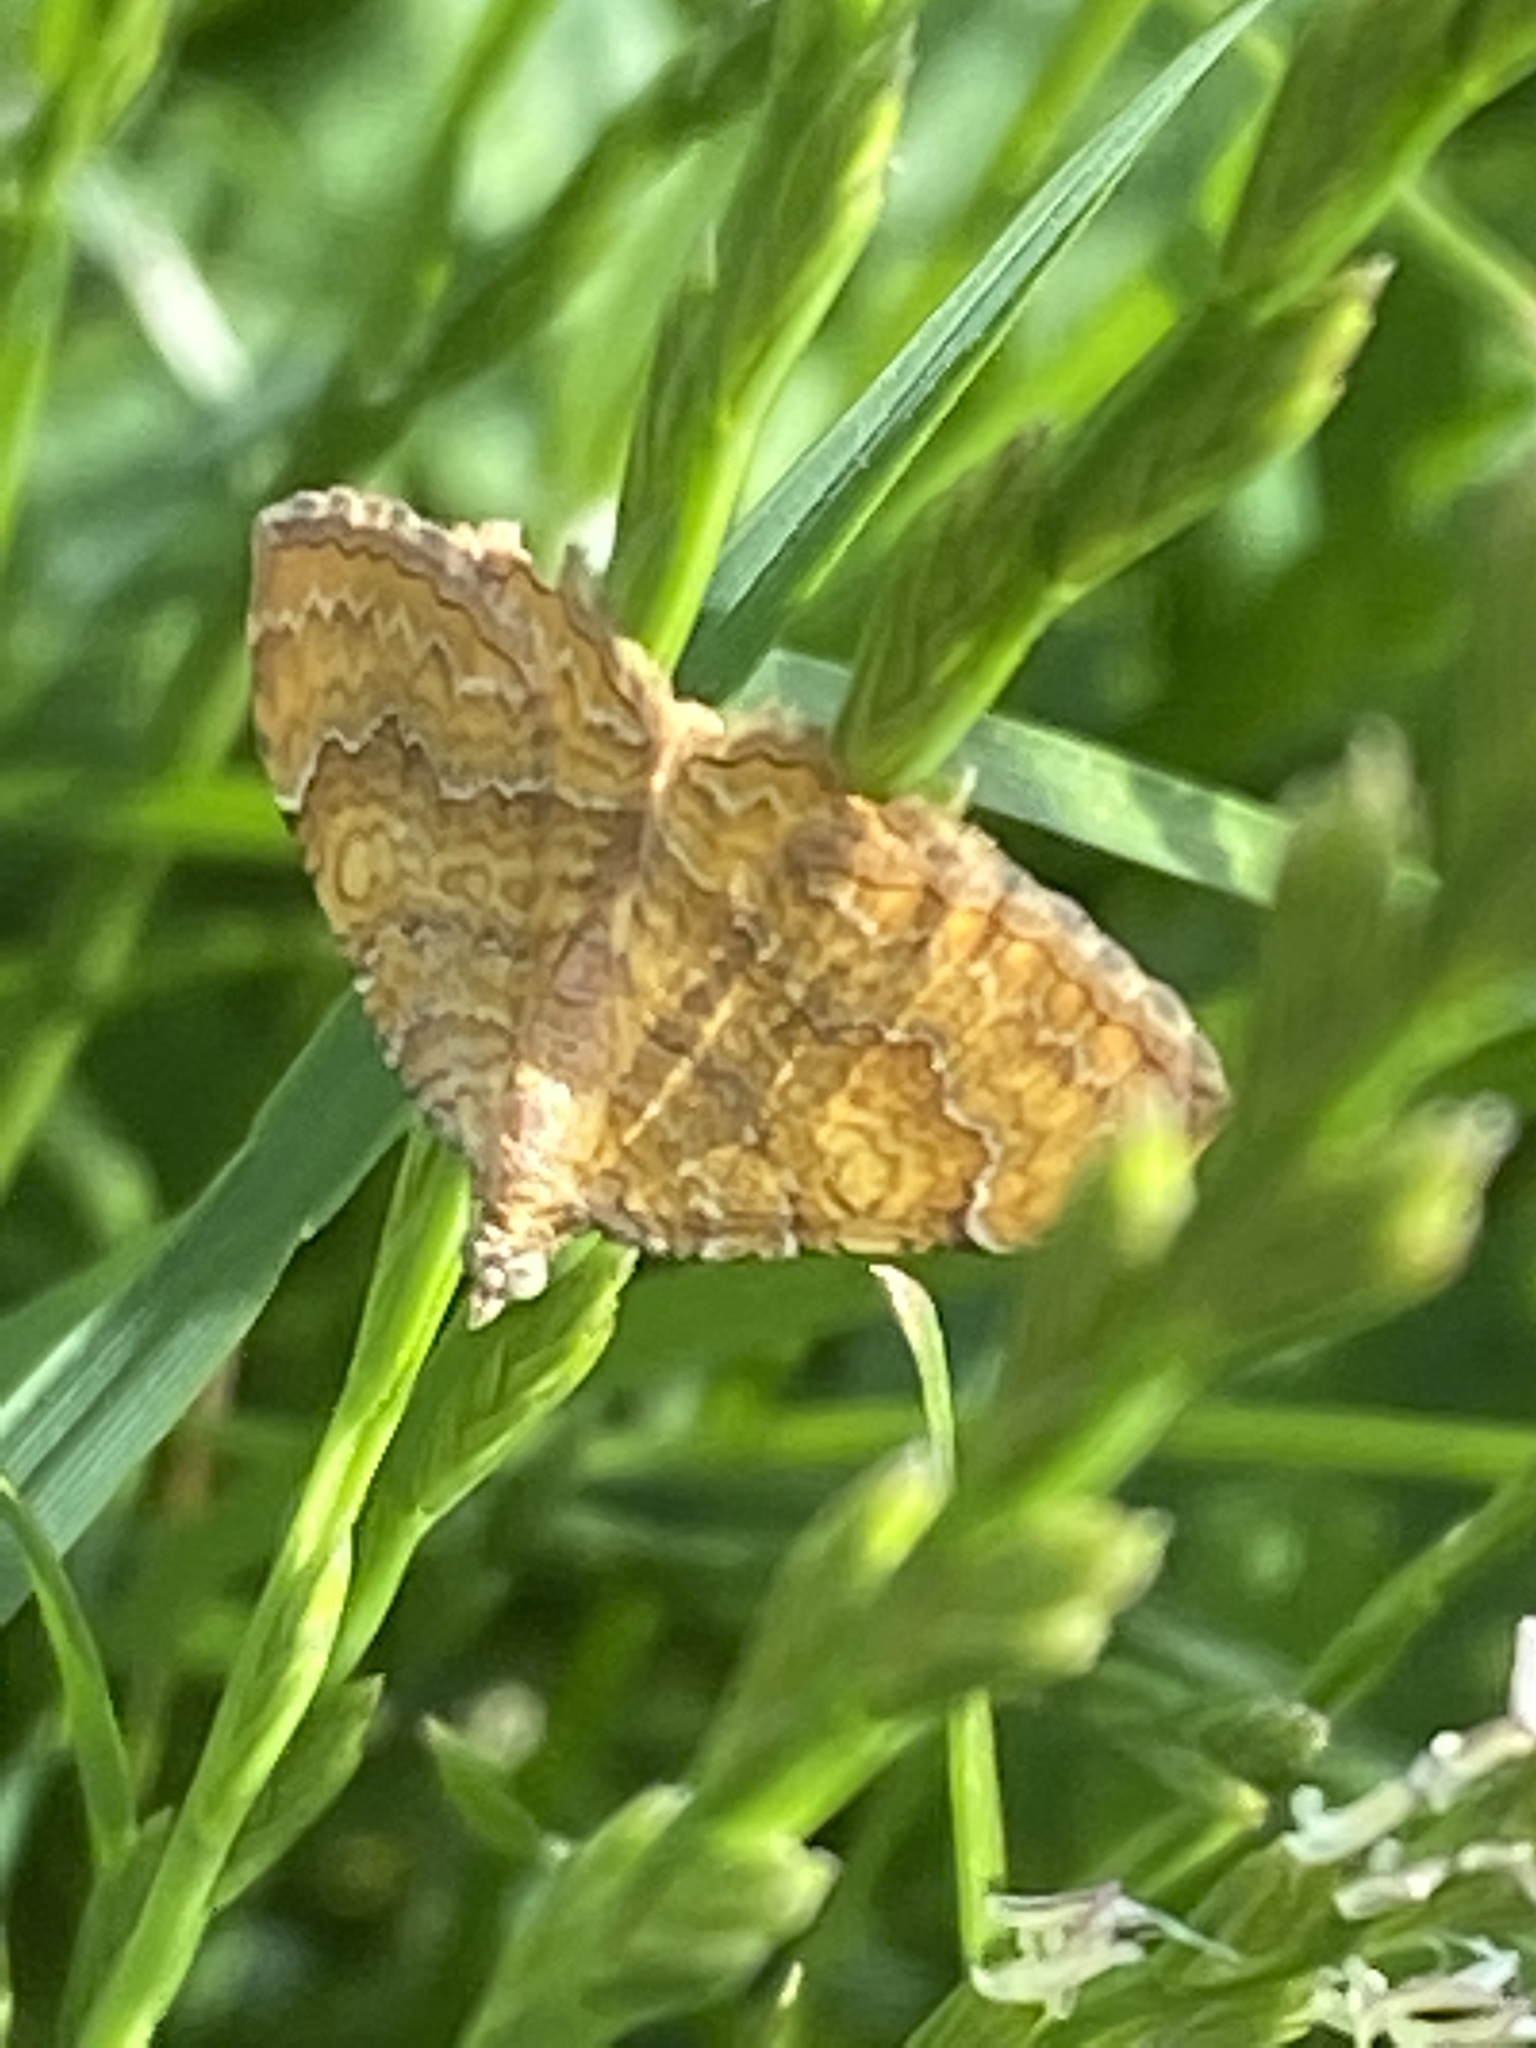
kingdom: Animalia
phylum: Arthropoda
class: Insecta
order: Lepidoptera
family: Geometridae
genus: Camptogramma
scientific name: Camptogramma bilineata
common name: Yellow shell
